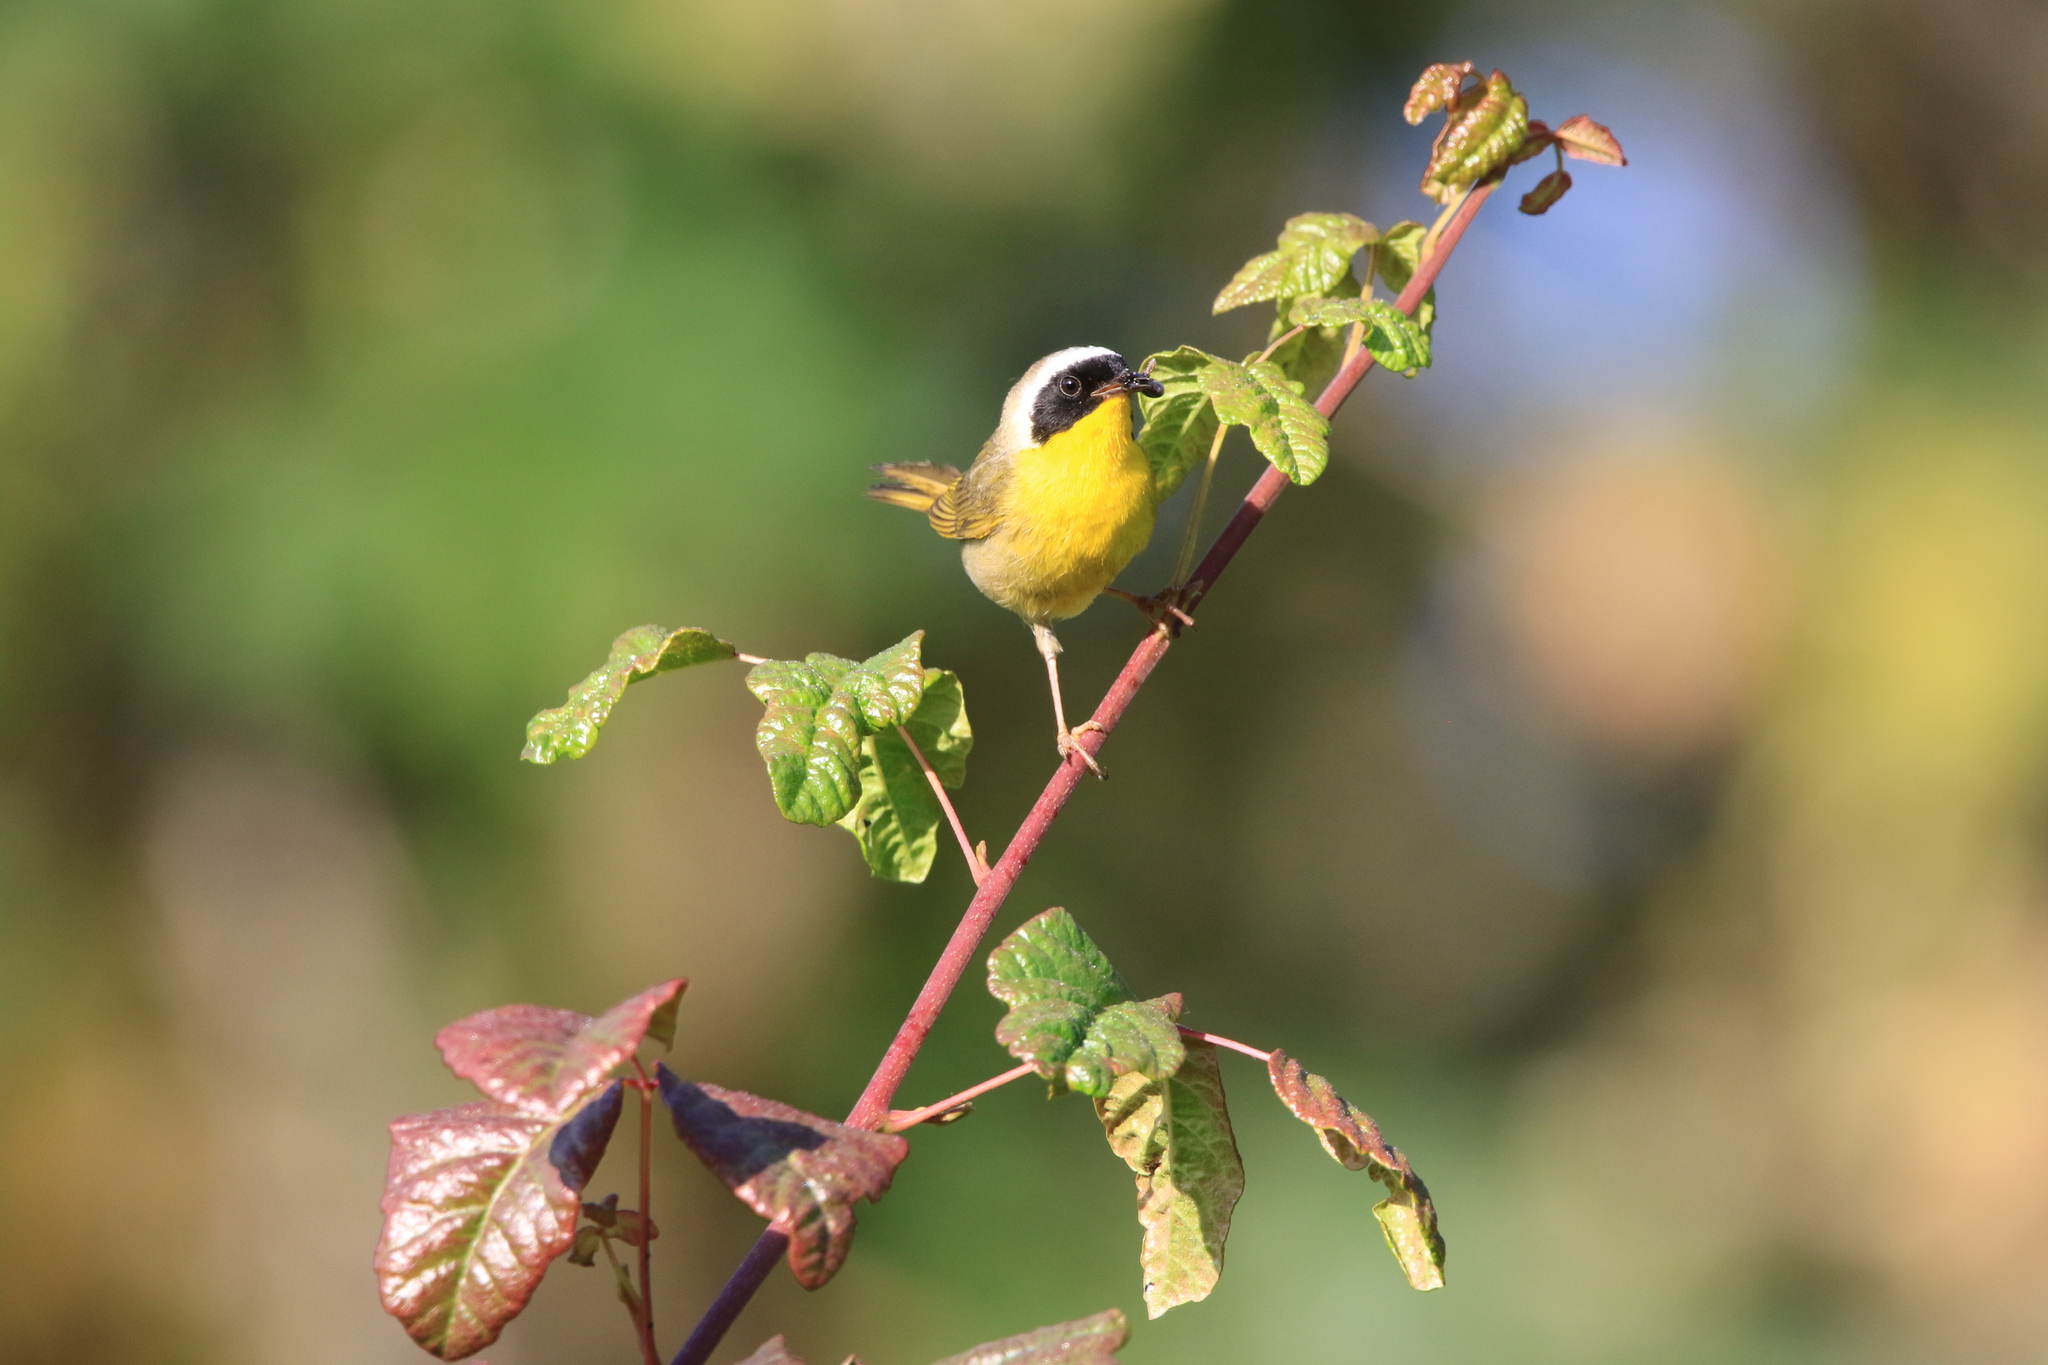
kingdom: Animalia
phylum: Chordata
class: Aves
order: Passeriformes
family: Parulidae
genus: Geothlypis
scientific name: Geothlypis trichas
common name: Common yellowthroat
